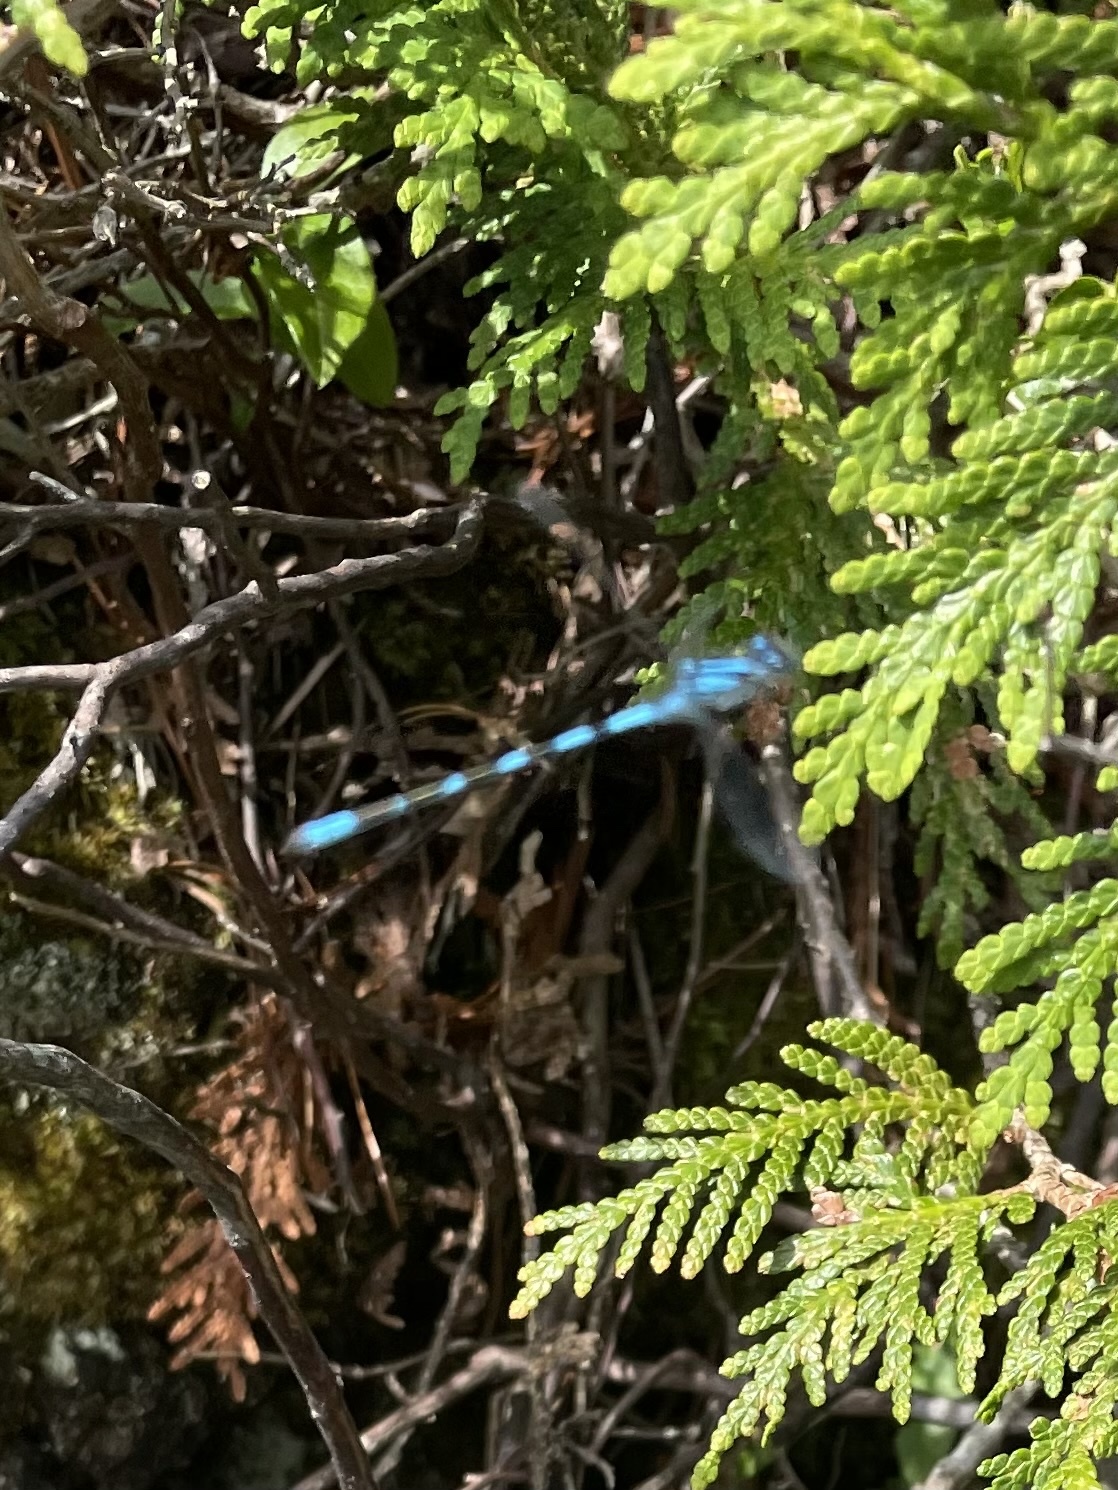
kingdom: Animalia
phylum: Arthropoda
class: Insecta
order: Odonata
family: Coenagrionidae
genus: Enallagma
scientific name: Enallagma
